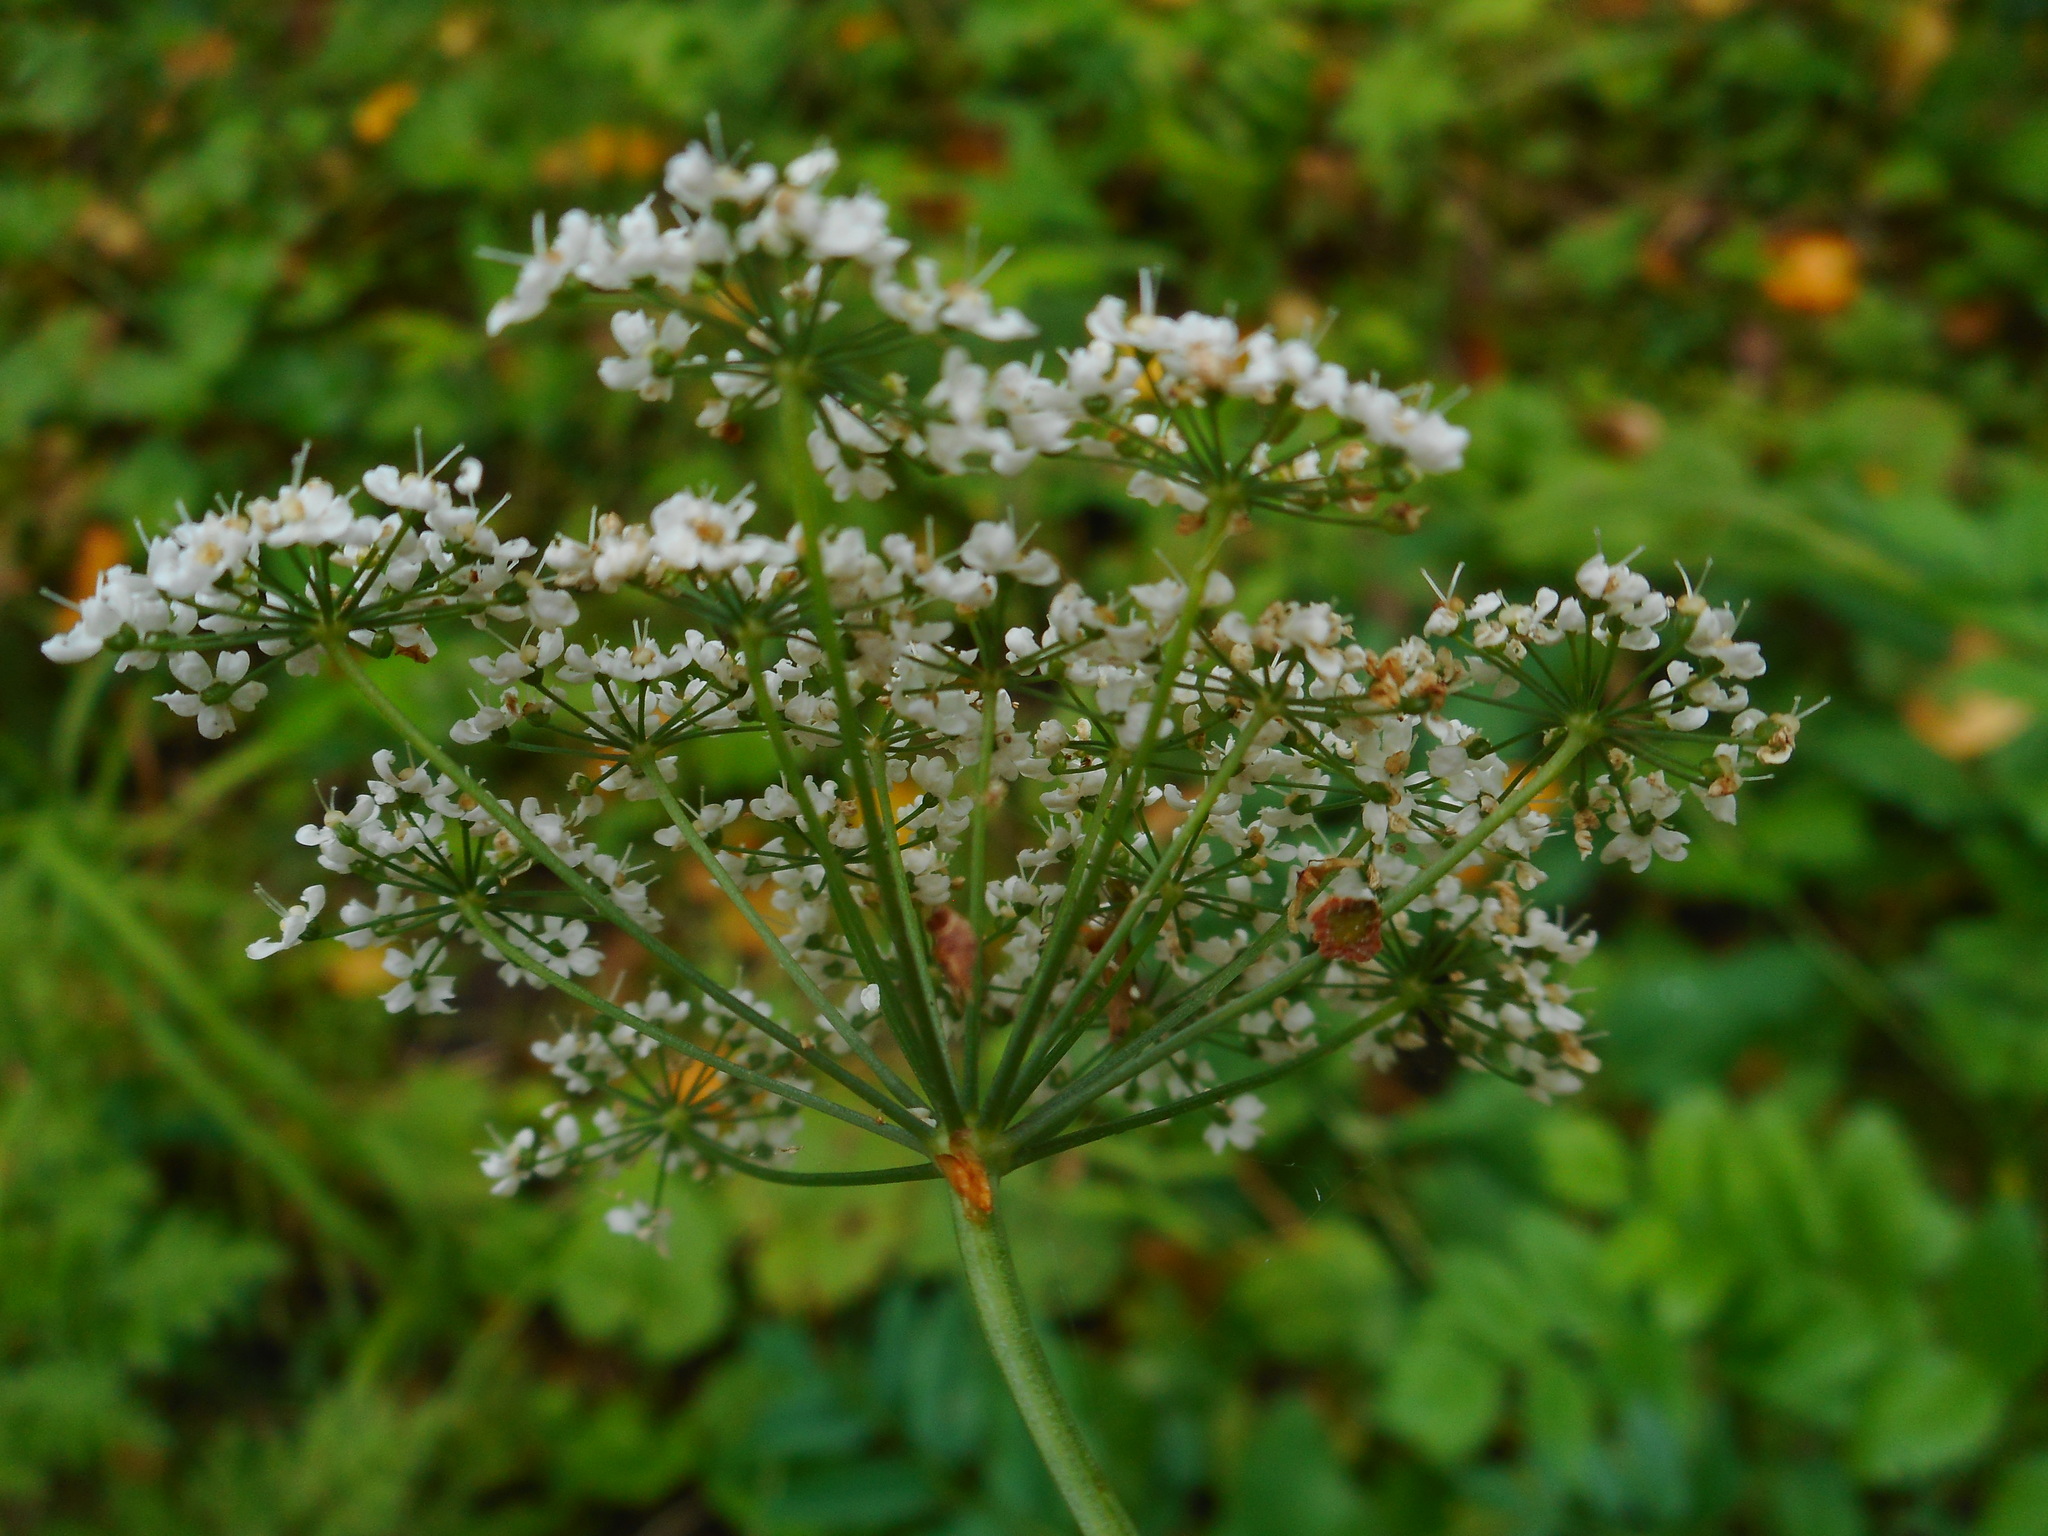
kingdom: Plantae
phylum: Tracheophyta
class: Magnoliopsida
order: Apiales
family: Apiaceae
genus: Pimpinella
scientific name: Pimpinella major
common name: Greater burnet-saxifrage
